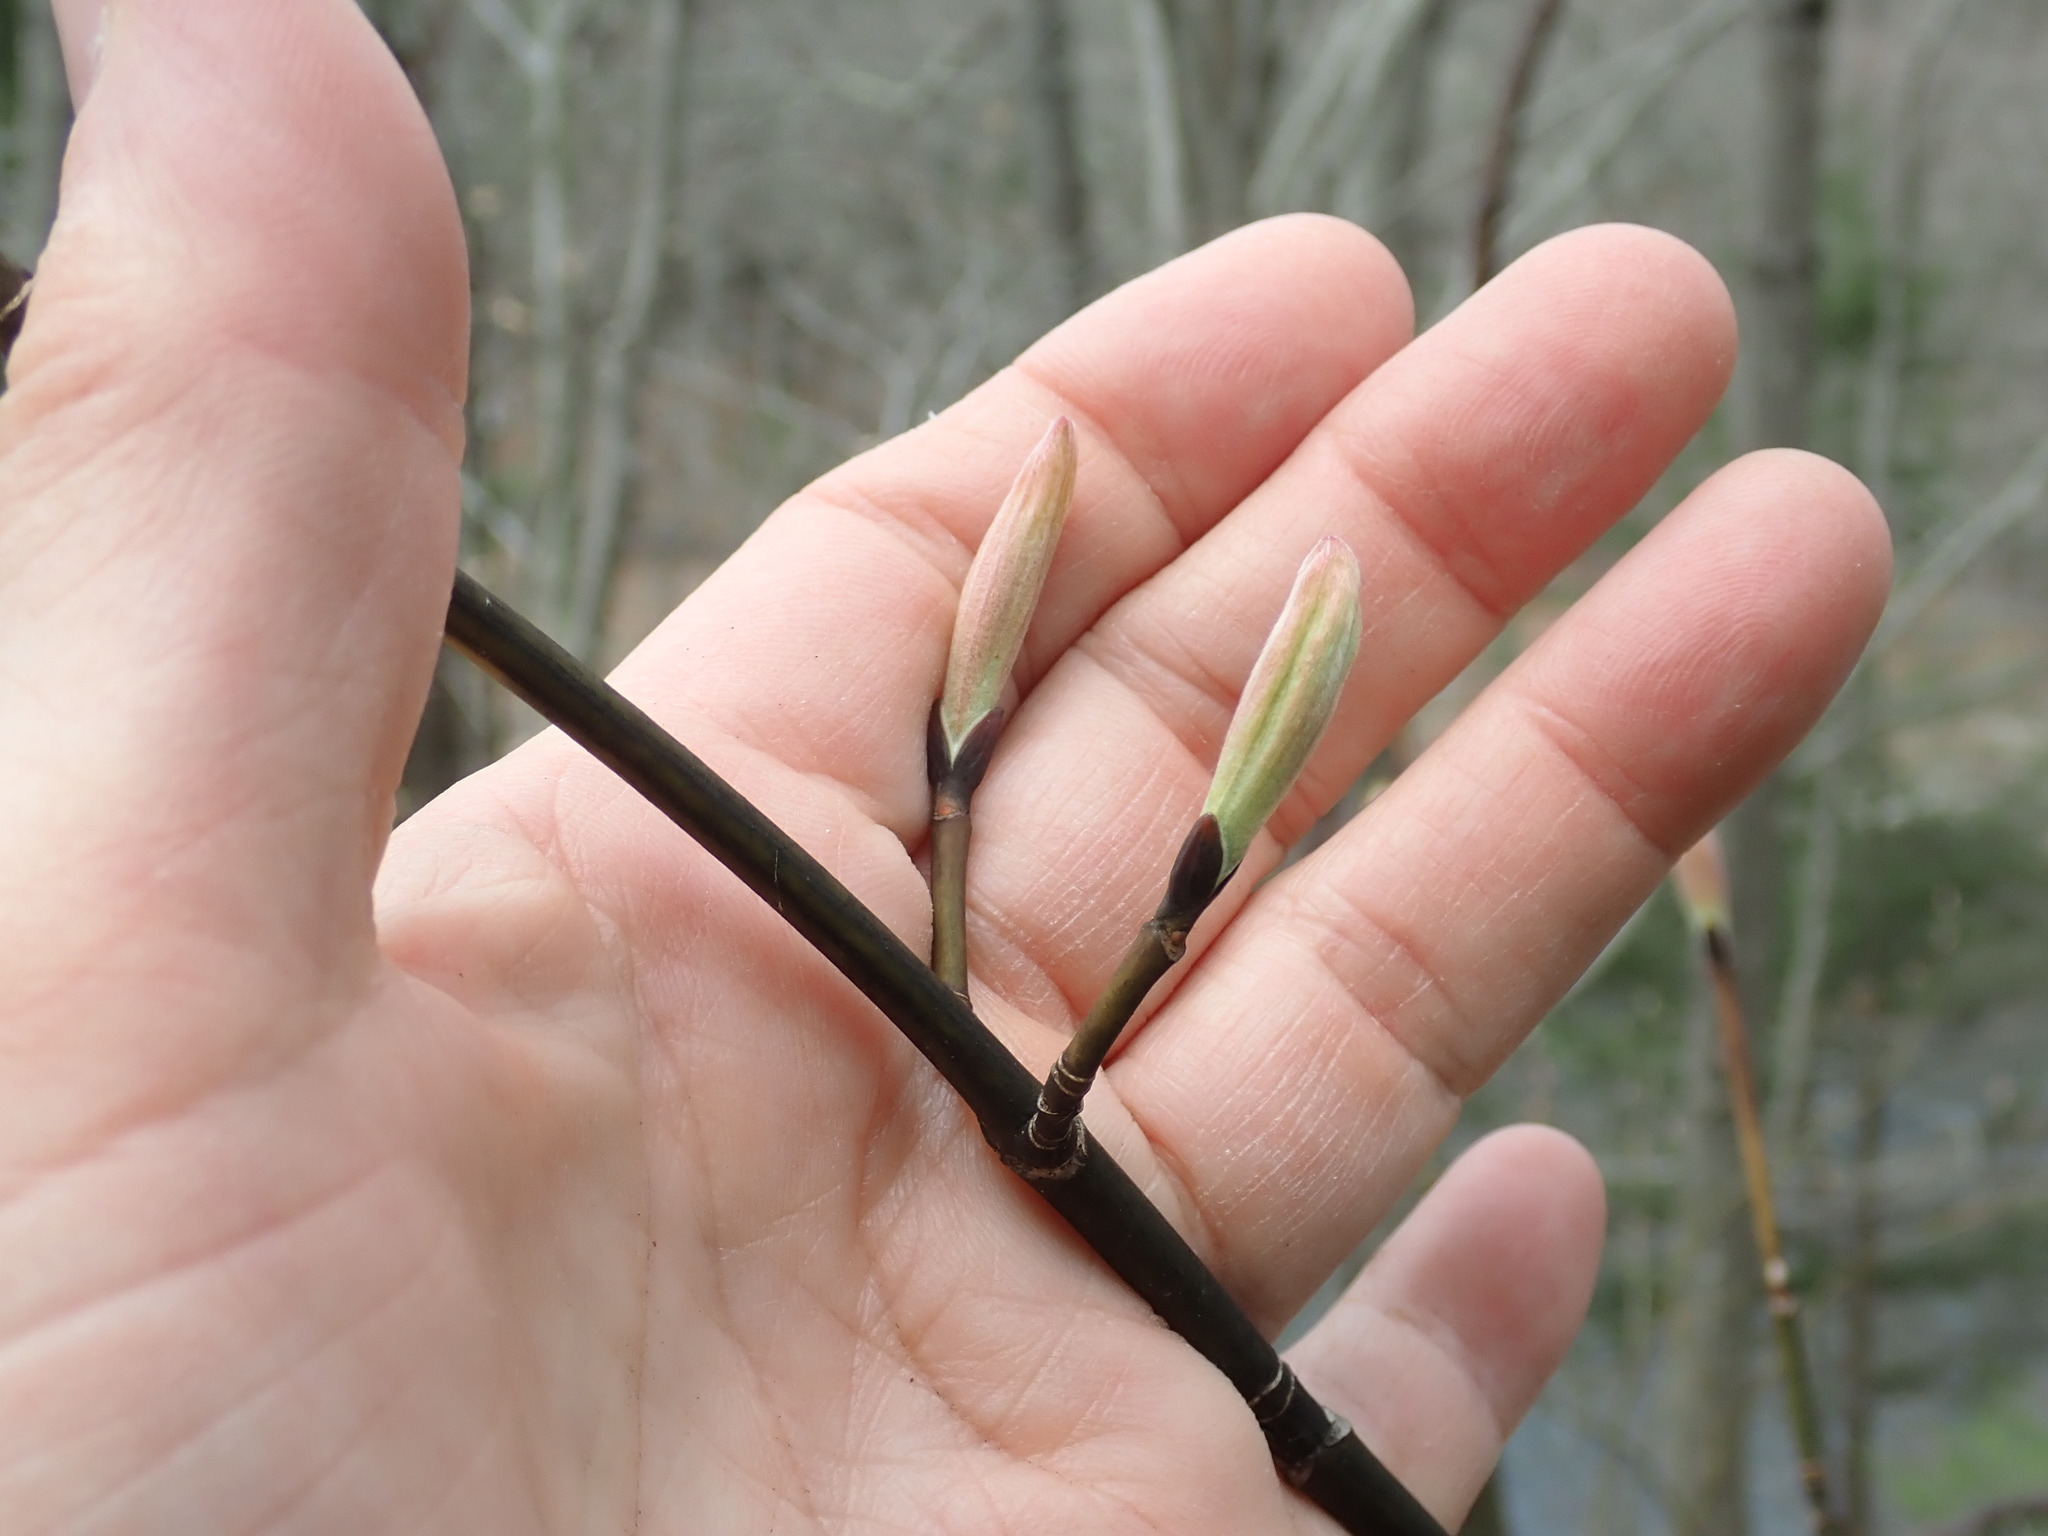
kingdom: Plantae
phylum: Tracheophyta
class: Magnoliopsida
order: Sapindales
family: Sapindaceae
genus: Acer
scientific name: Acer pensylvanicum
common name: Moosewood
